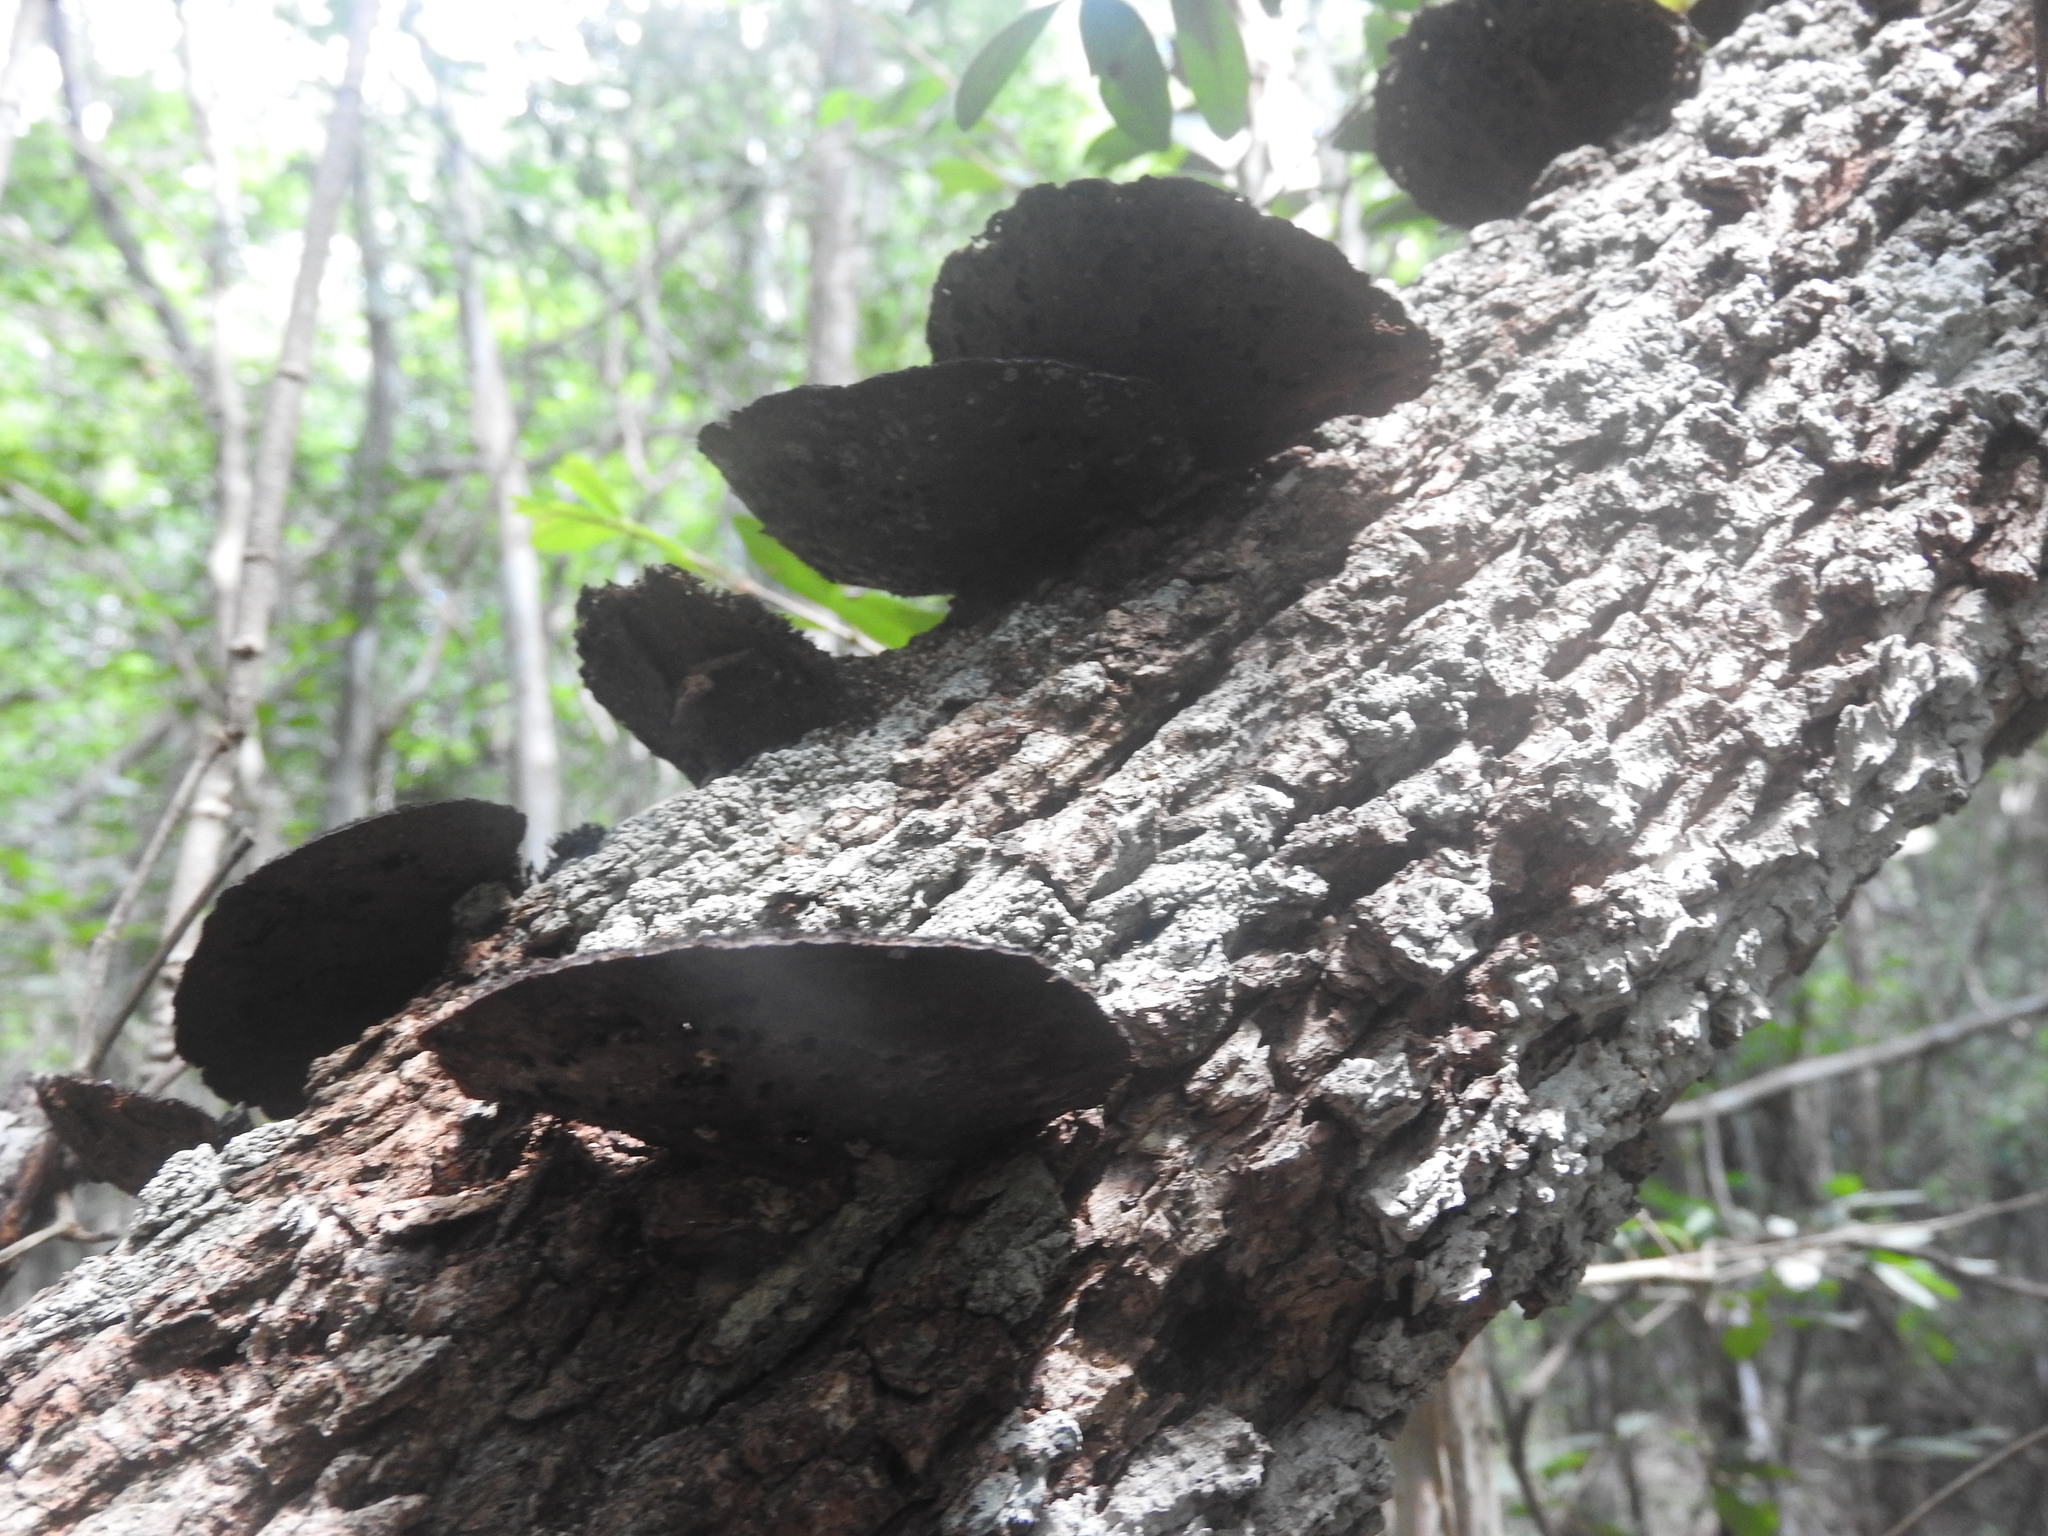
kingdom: Fungi
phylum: Basidiomycota
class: Agaricomycetes
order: Polyporales
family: Cerrenaceae
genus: Cerrena
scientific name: Cerrena hydnoides
